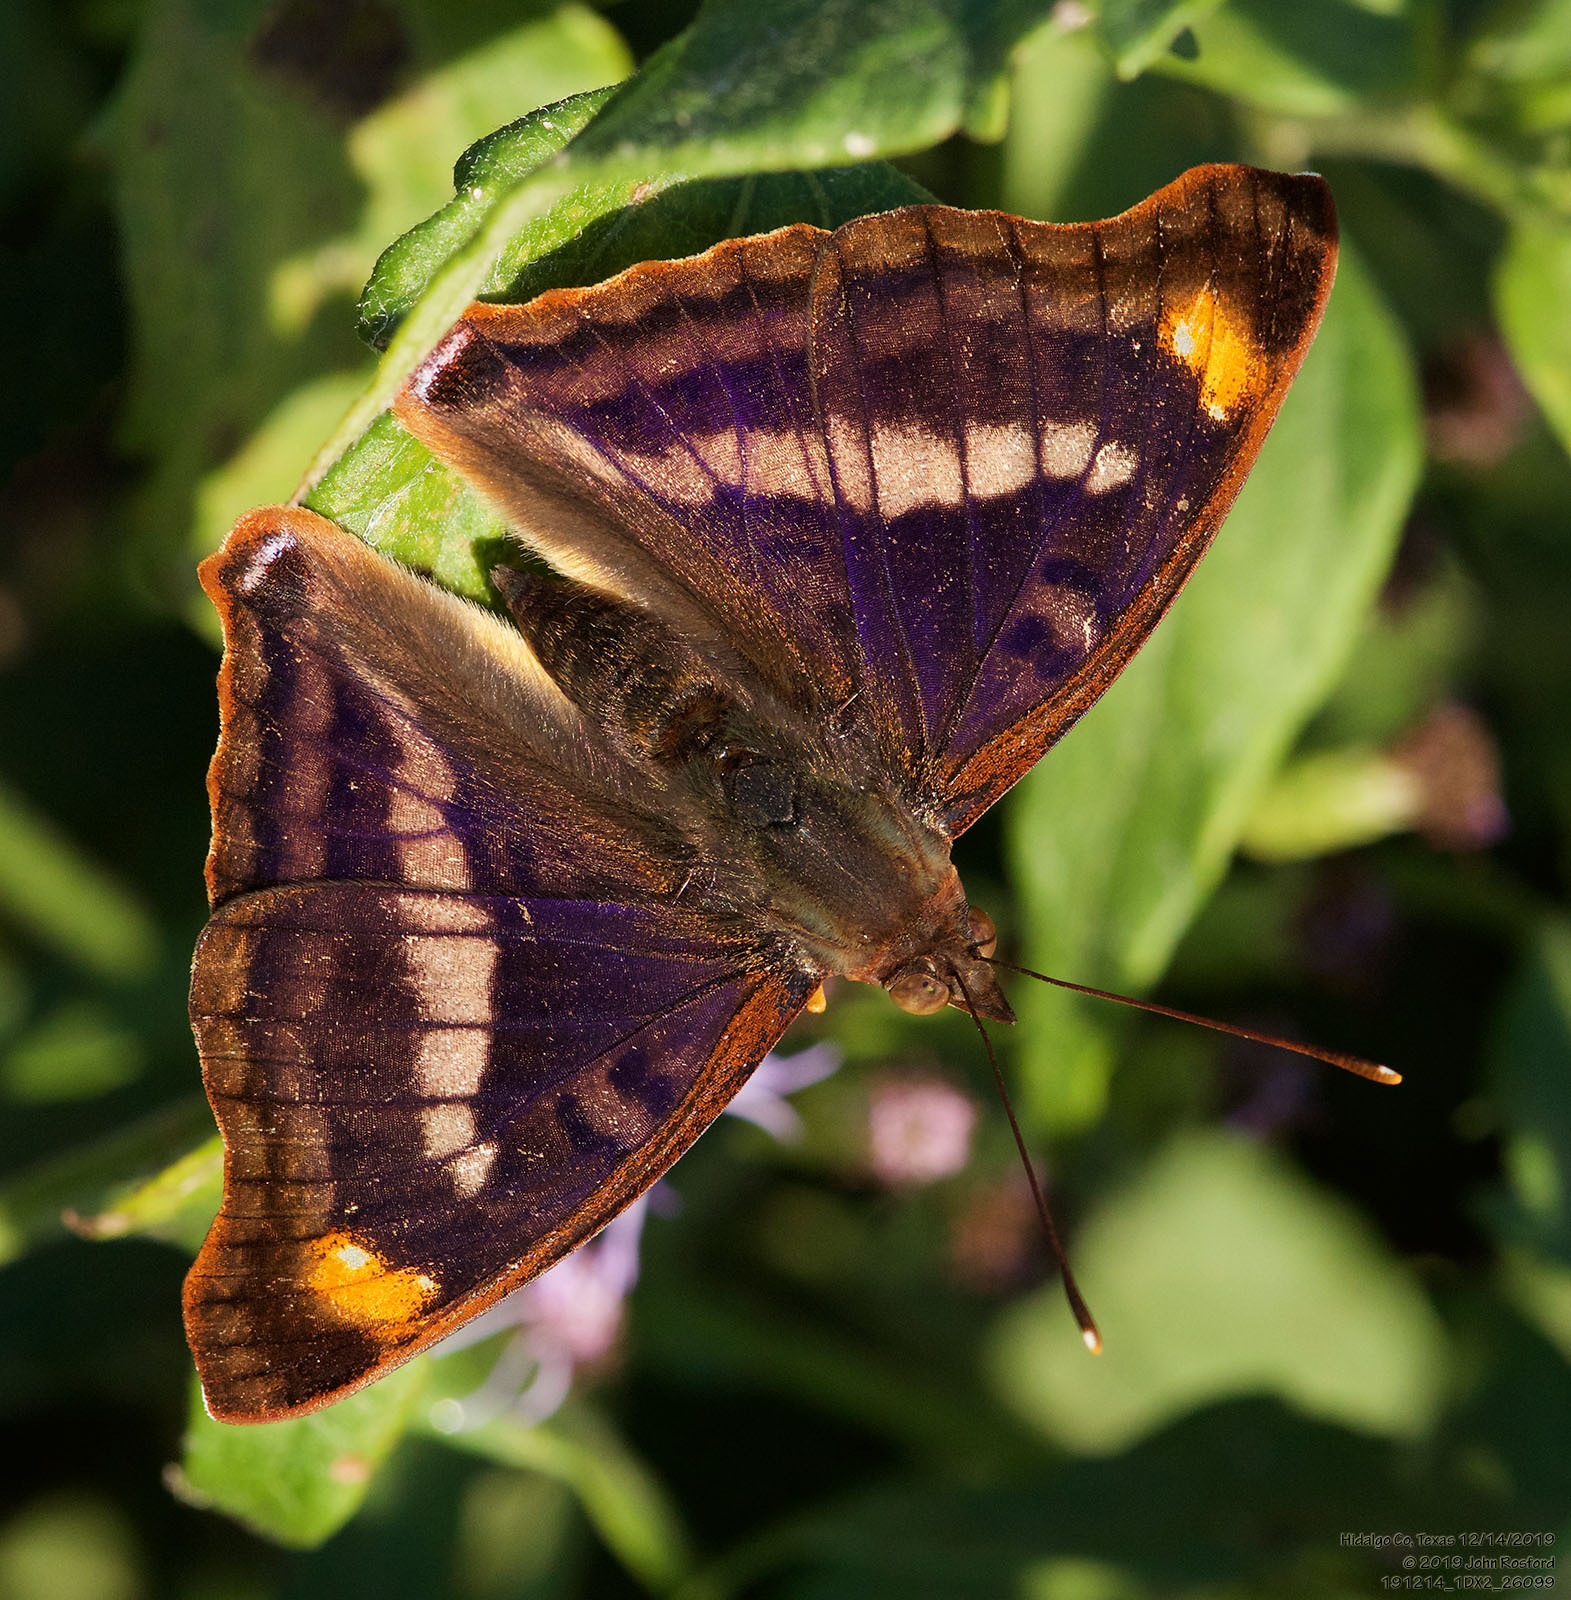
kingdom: Animalia
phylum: Arthropoda
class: Insecta
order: Lepidoptera
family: Nymphalidae
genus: Doxocopa
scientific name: Doxocopa pavon
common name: Pavon emperor
